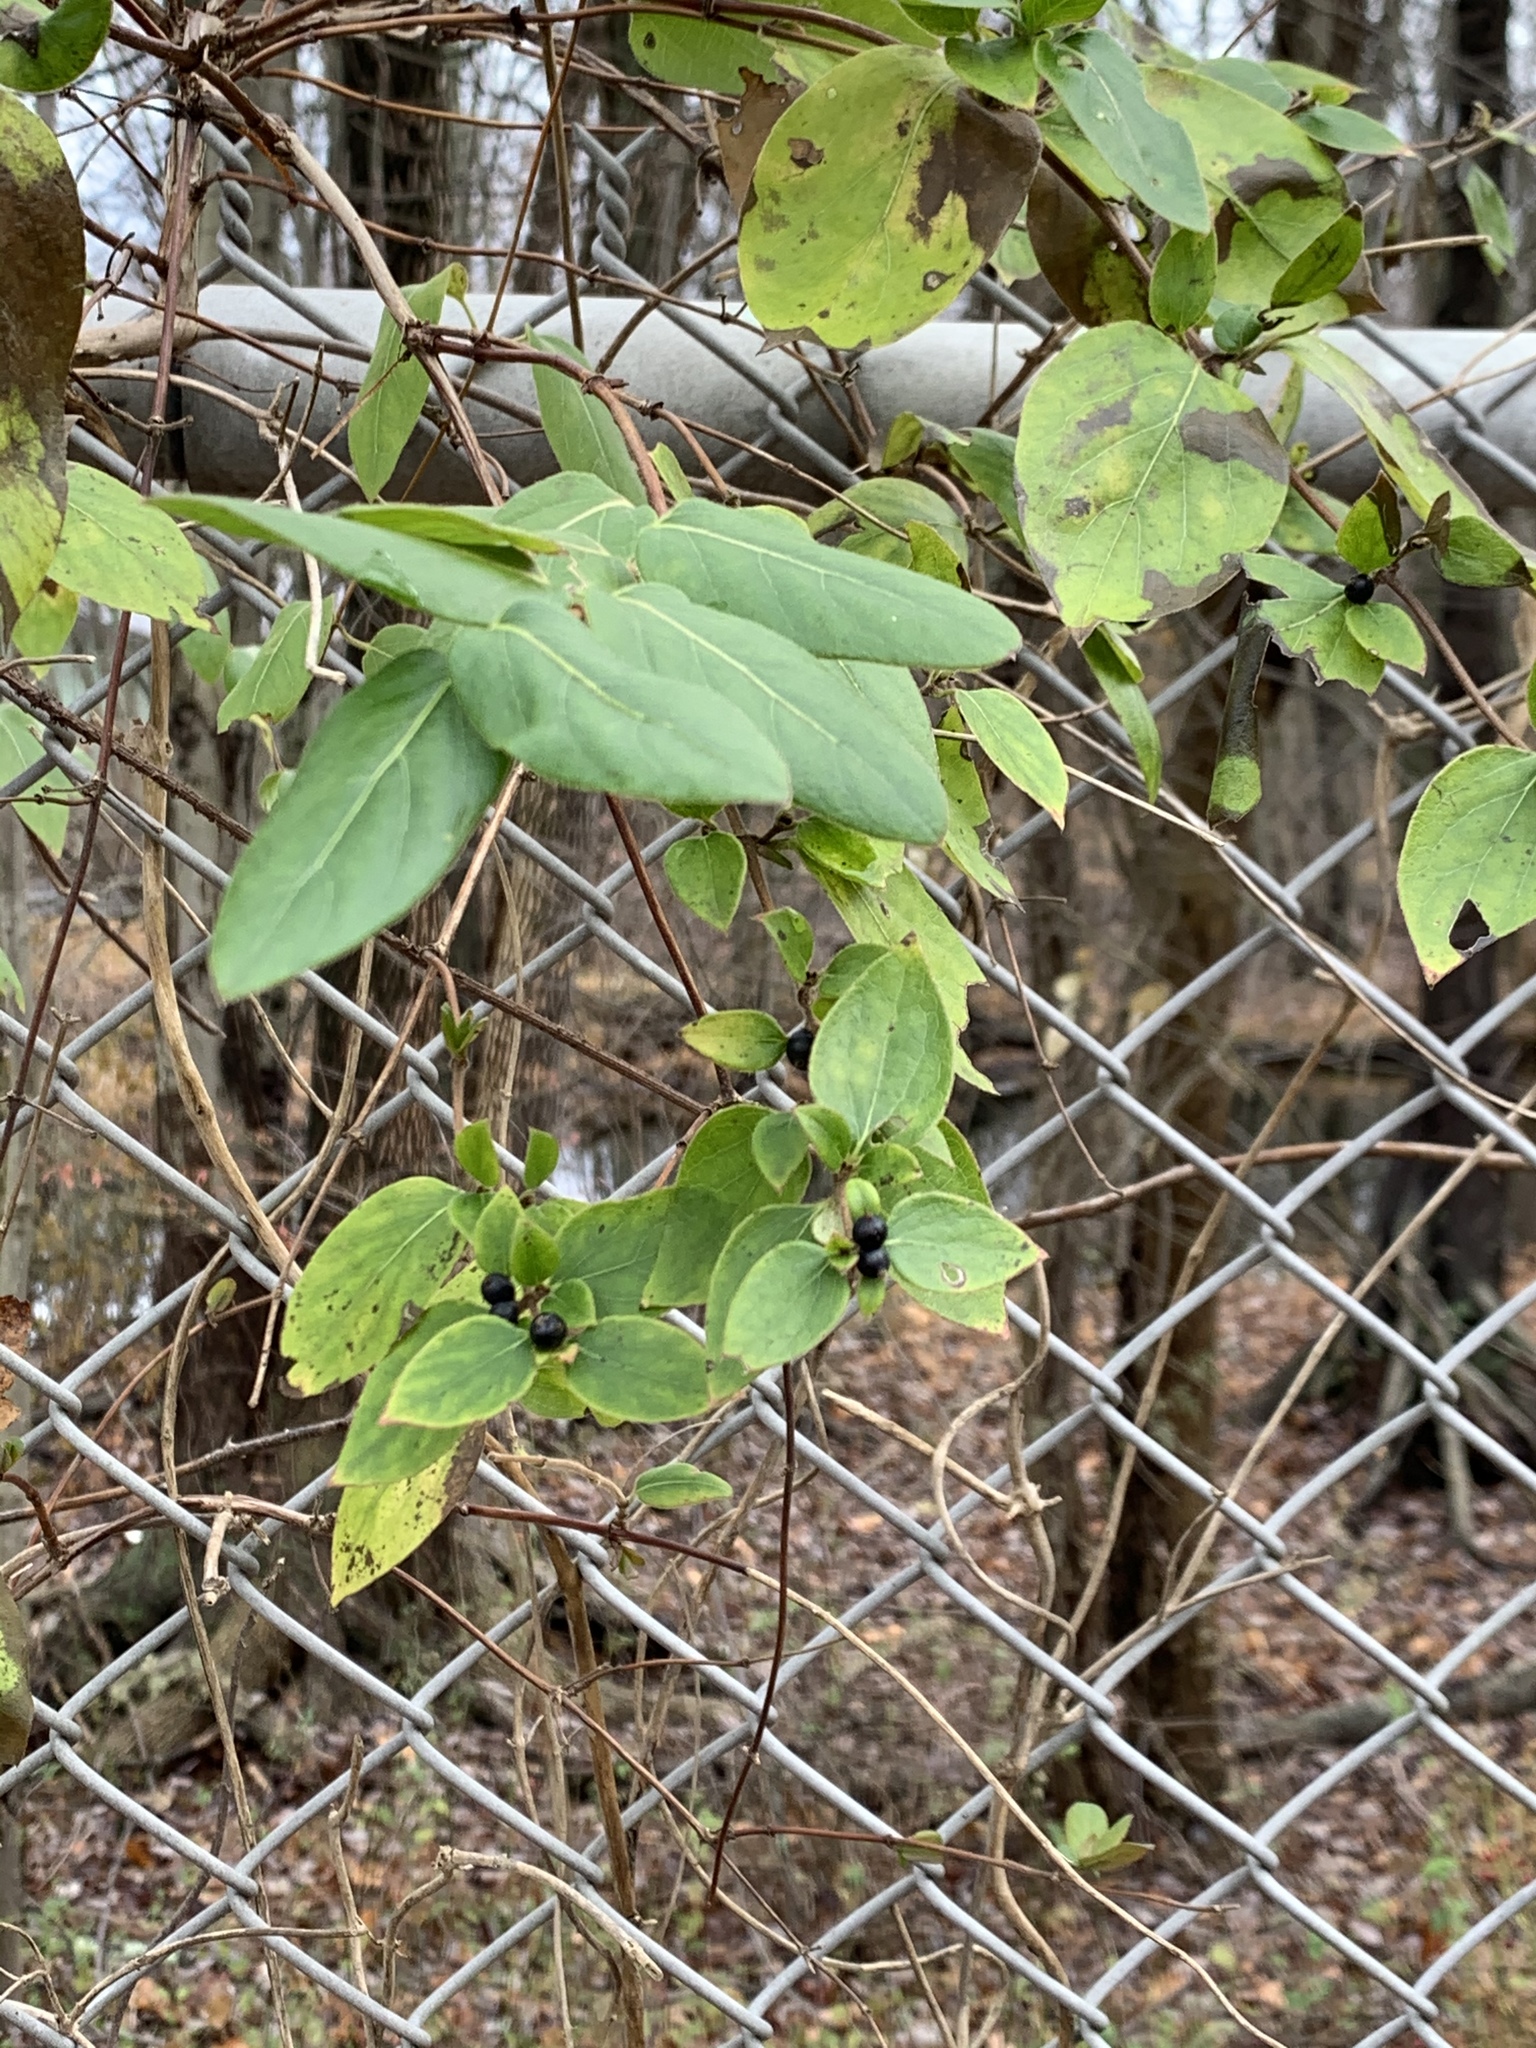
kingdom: Plantae
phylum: Tracheophyta
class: Magnoliopsida
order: Dipsacales
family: Caprifoliaceae
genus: Lonicera
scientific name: Lonicera japonica
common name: Japanese honeysuckle
